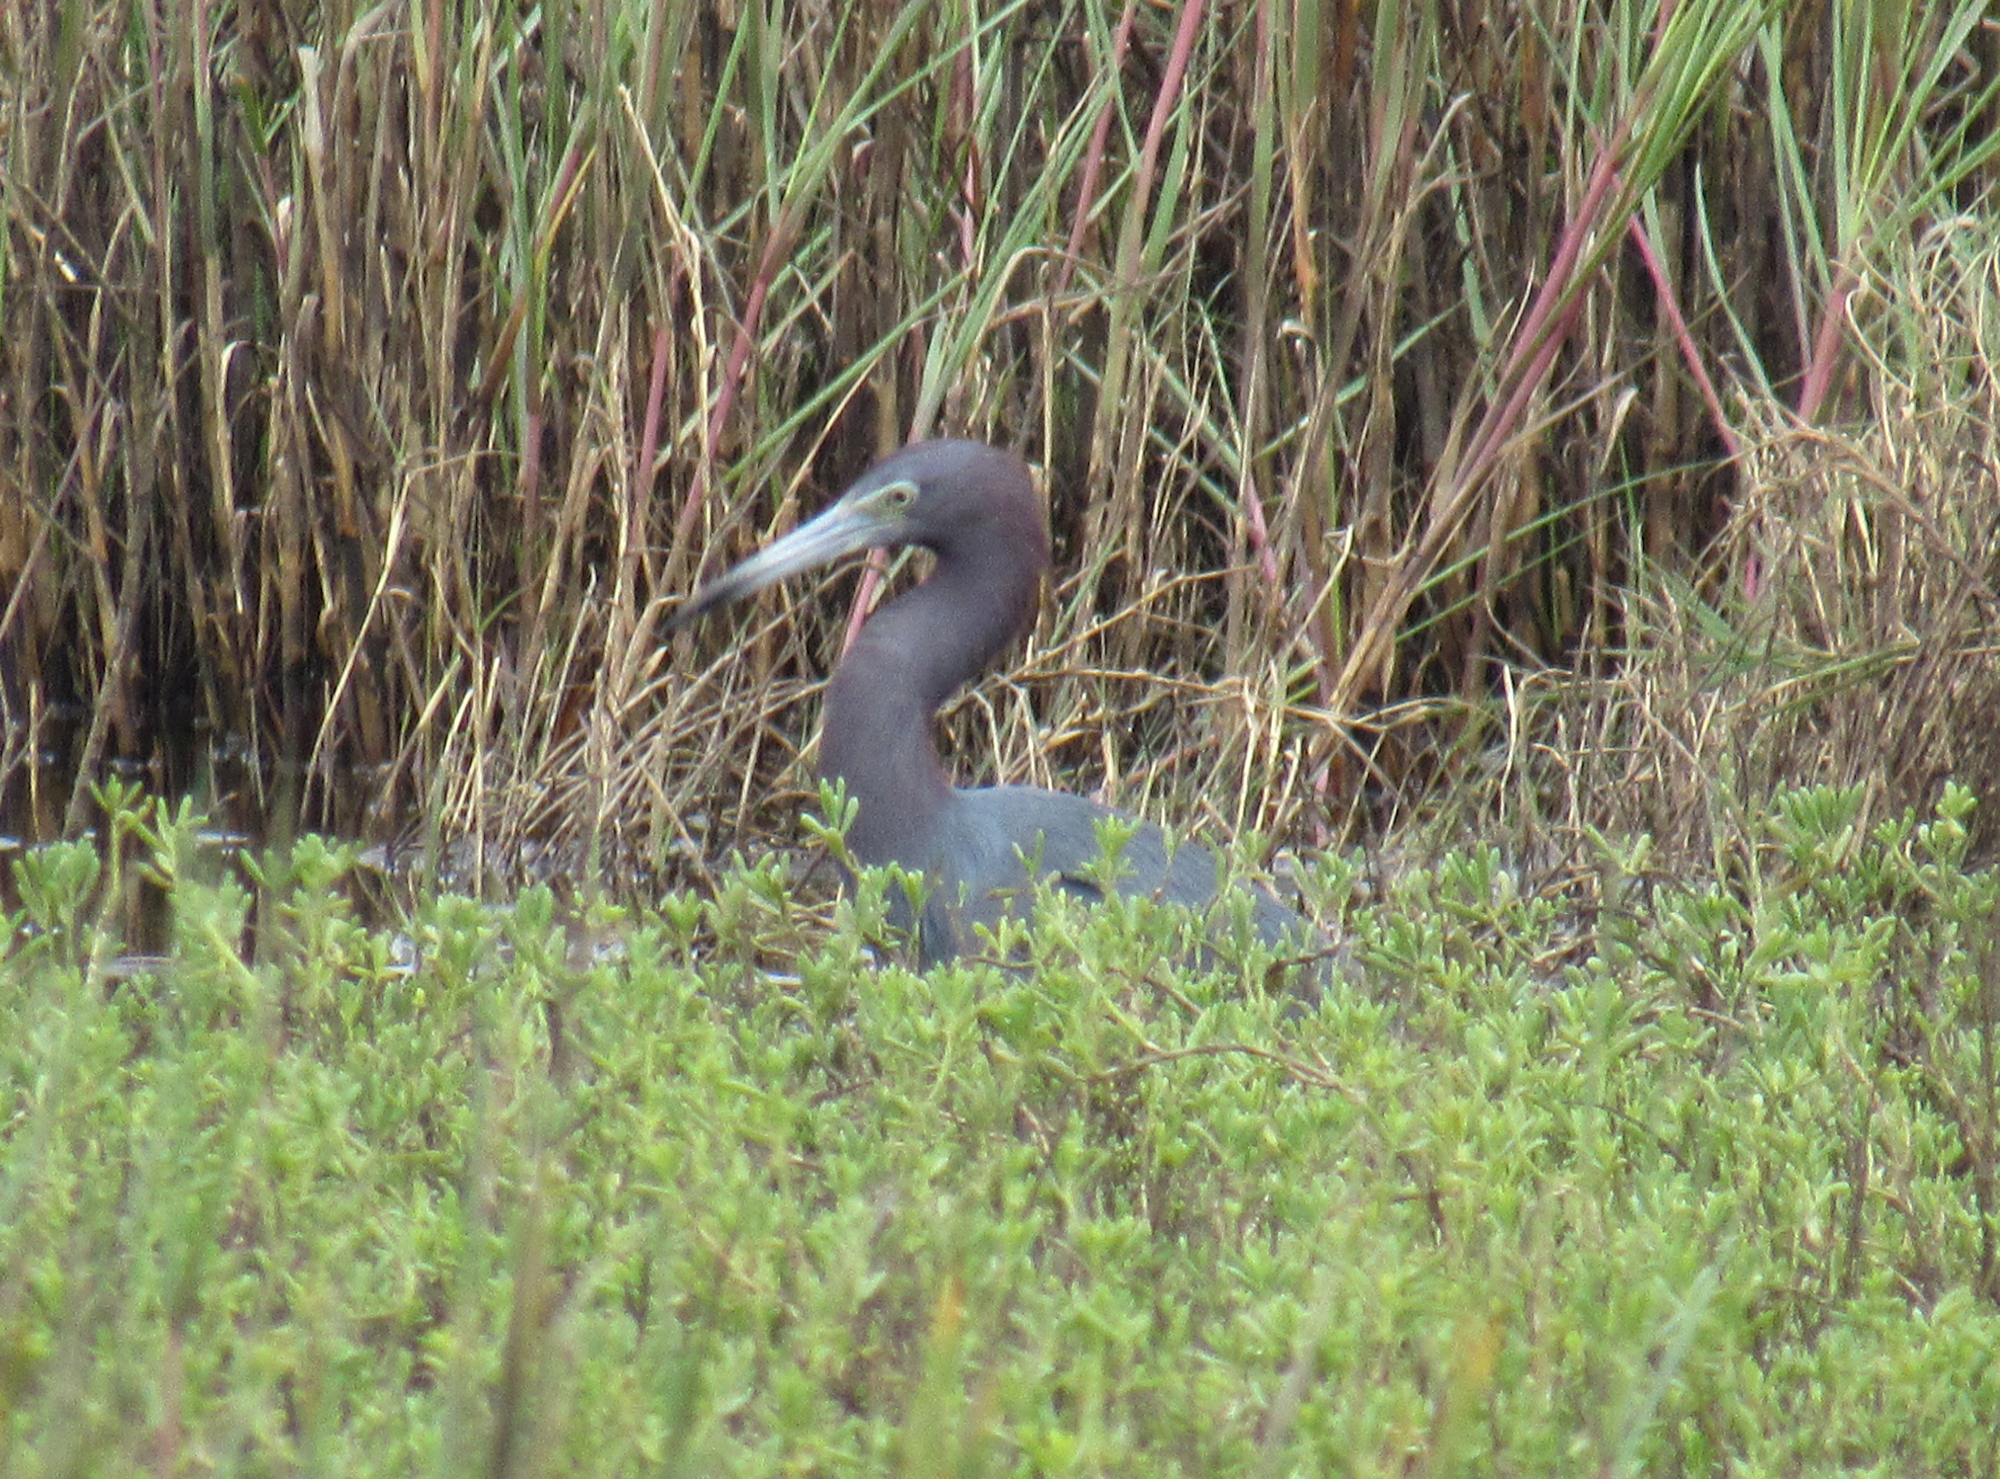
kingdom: Animalia
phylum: Chordata
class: Aves
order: Pelecaniformes
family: Ardeidae
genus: Egretta
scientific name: Egretta caerulea
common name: Little blue heron
